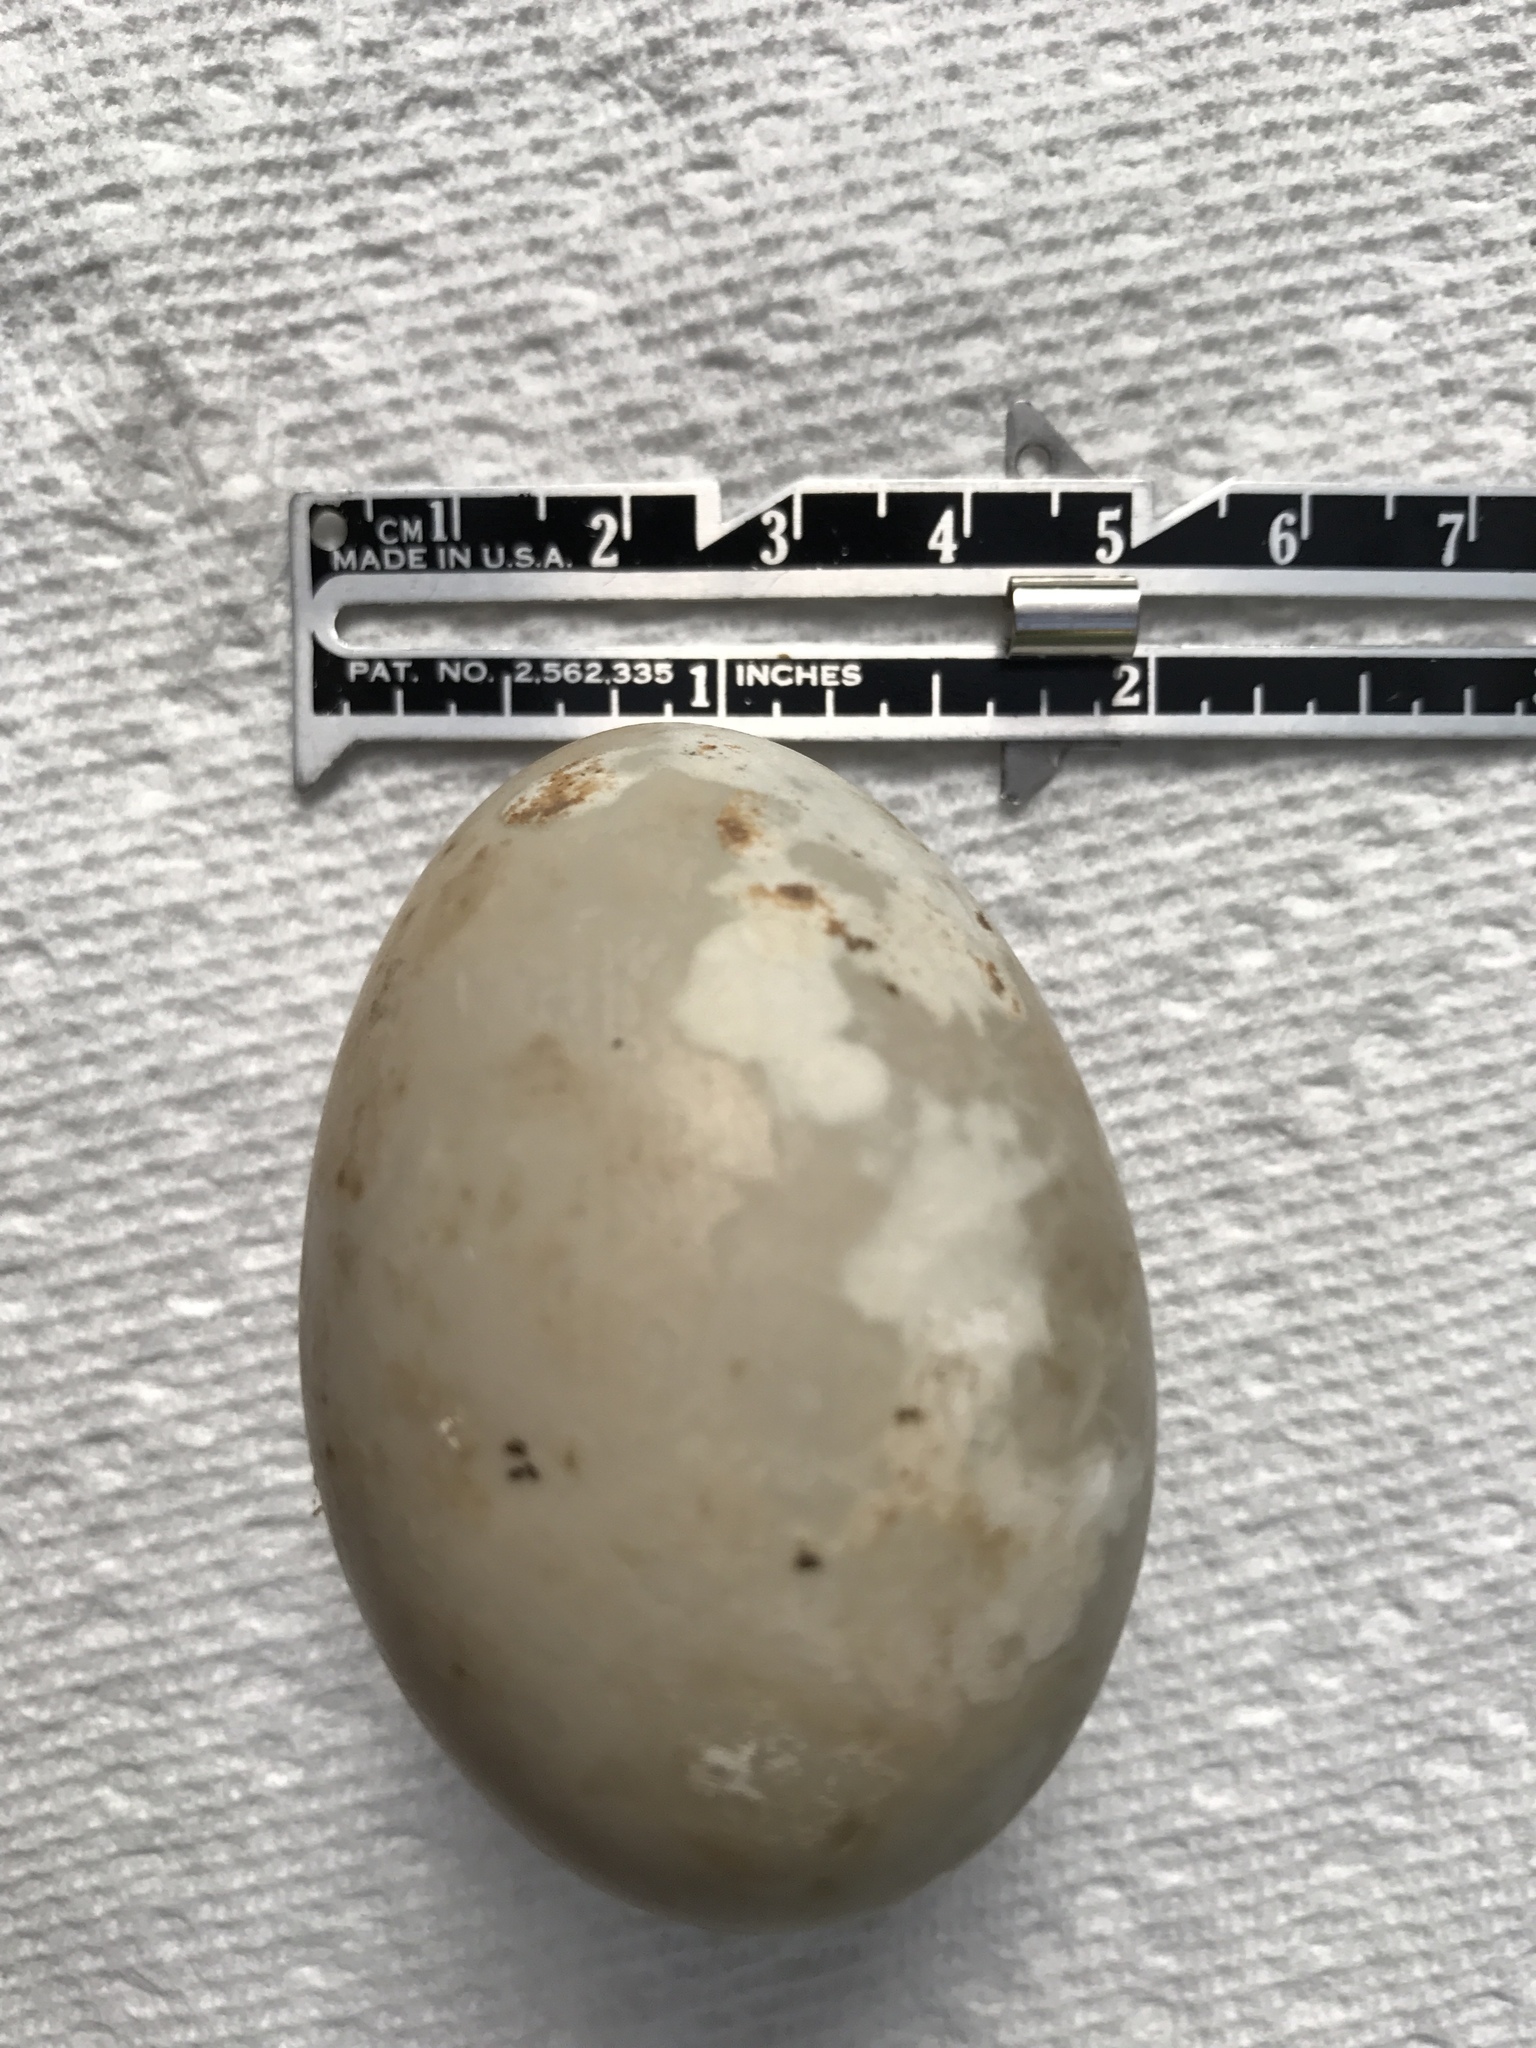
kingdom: Animalia
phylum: Chordata
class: Aves
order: Galliformes
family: Phasianidae
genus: Meleagris
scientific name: Meleagris gallopavo
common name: Wild turkey
